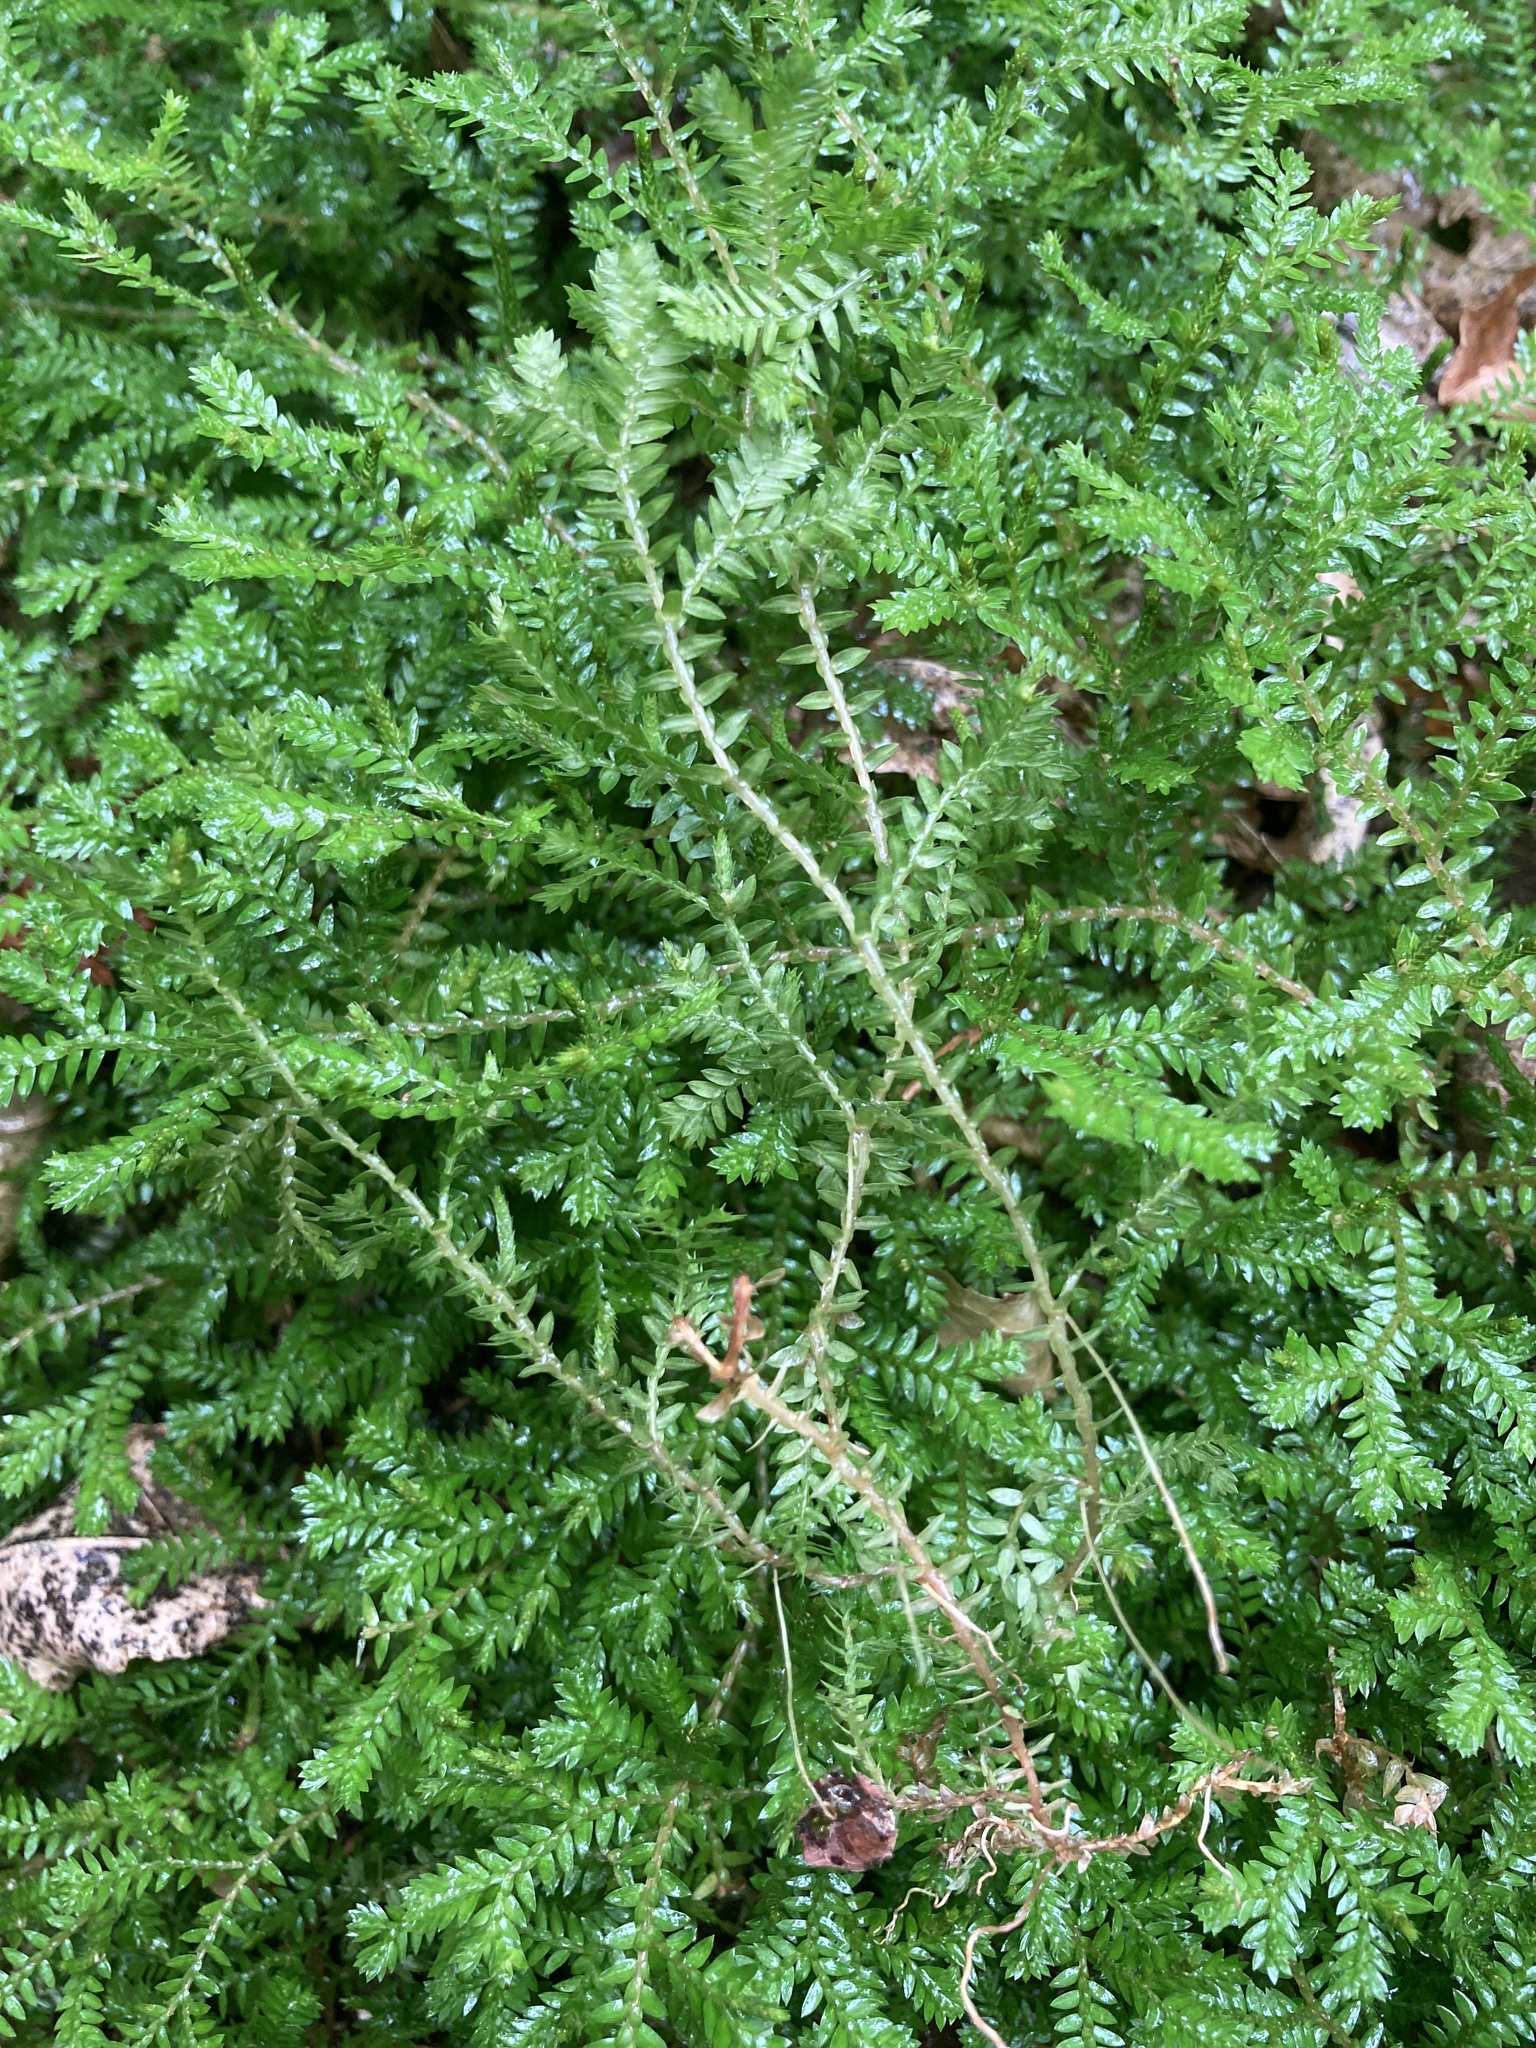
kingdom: Plantae
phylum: Tracheophyta
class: Lycopodiopsida
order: Selaginellales
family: Selaginellaceae
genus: Selaginella
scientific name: Selaginella kraussiana
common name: Krauss' spikemoss
